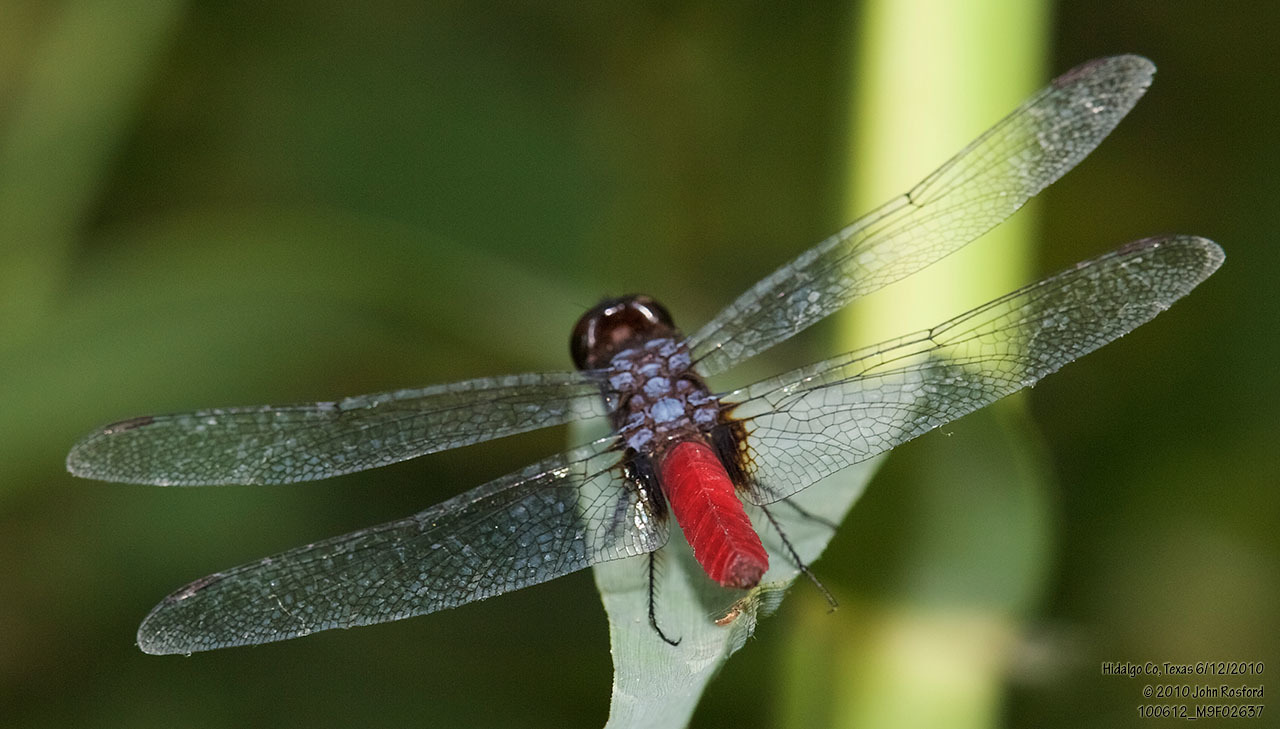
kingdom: Animalia
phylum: Arthropoda
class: Insecta
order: Odonata
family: Libellulidae
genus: Planiplax
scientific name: Planiplax sanguiniventris
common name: Mexican scarlet-tail
